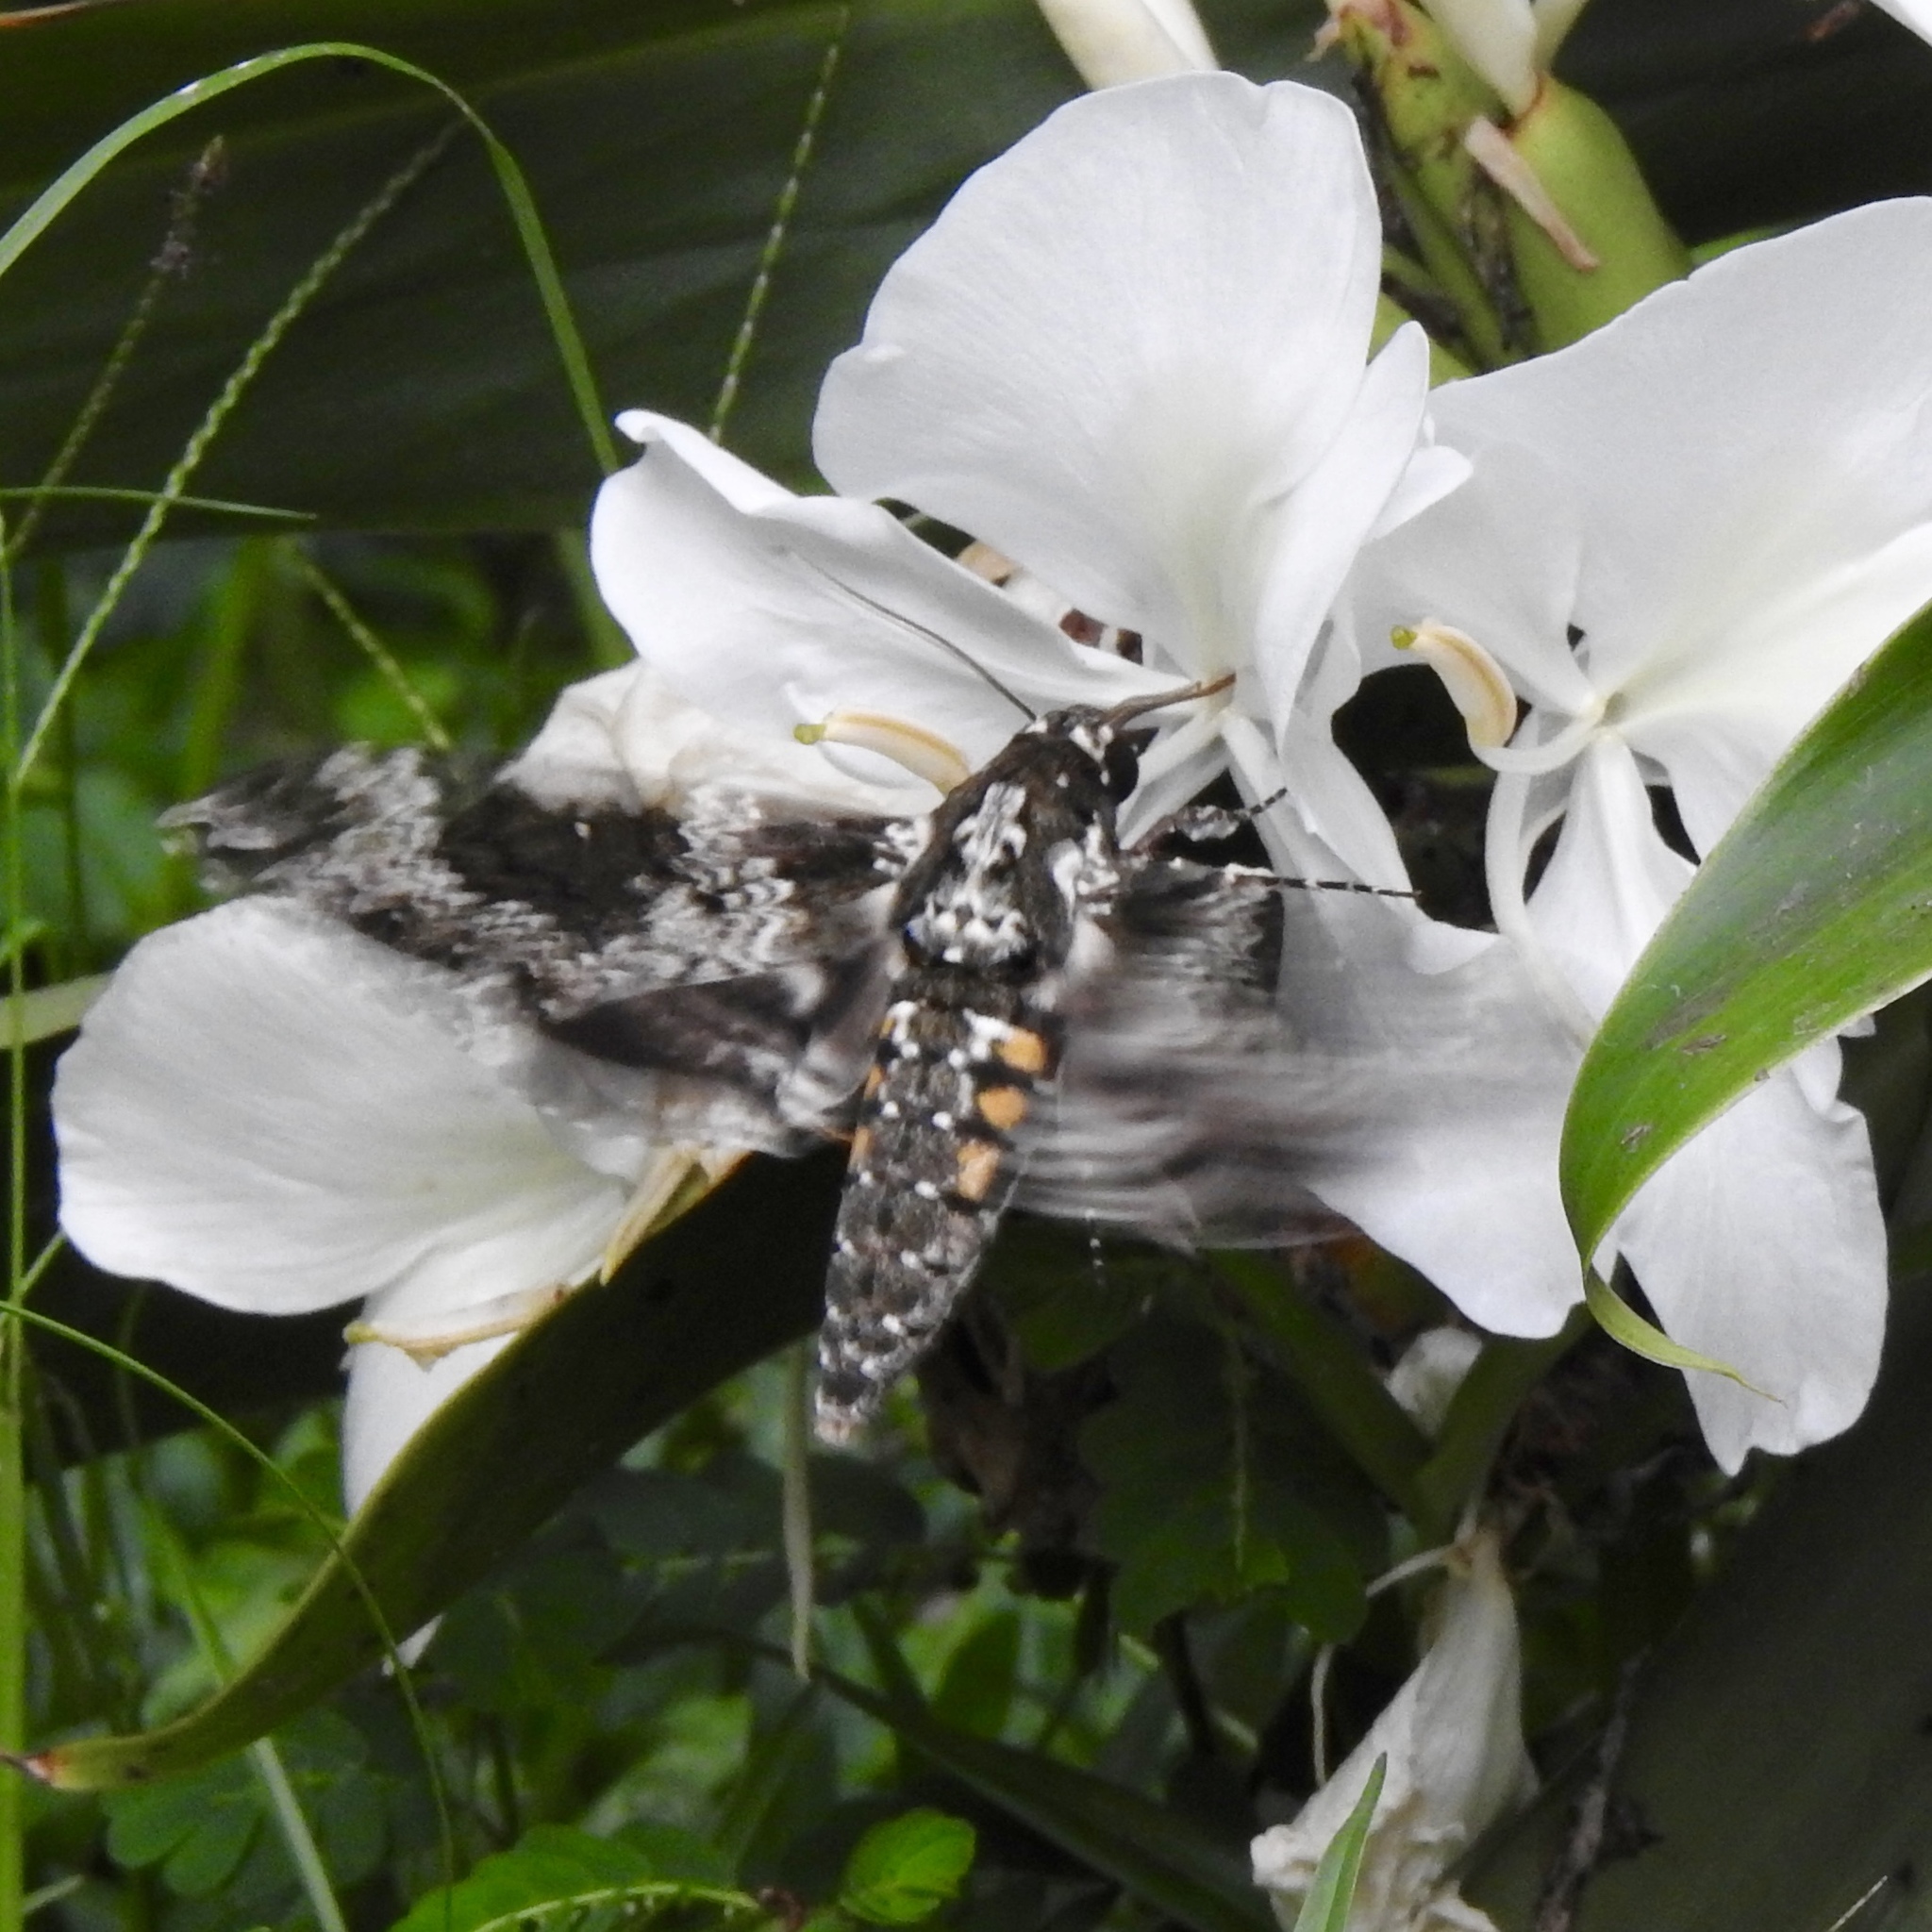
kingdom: Animalia
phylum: Arthropoda
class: Insecta
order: Lepidoptera
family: Sphingidae
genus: Manduca
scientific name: Manduca rustica
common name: Rustic sphinx
